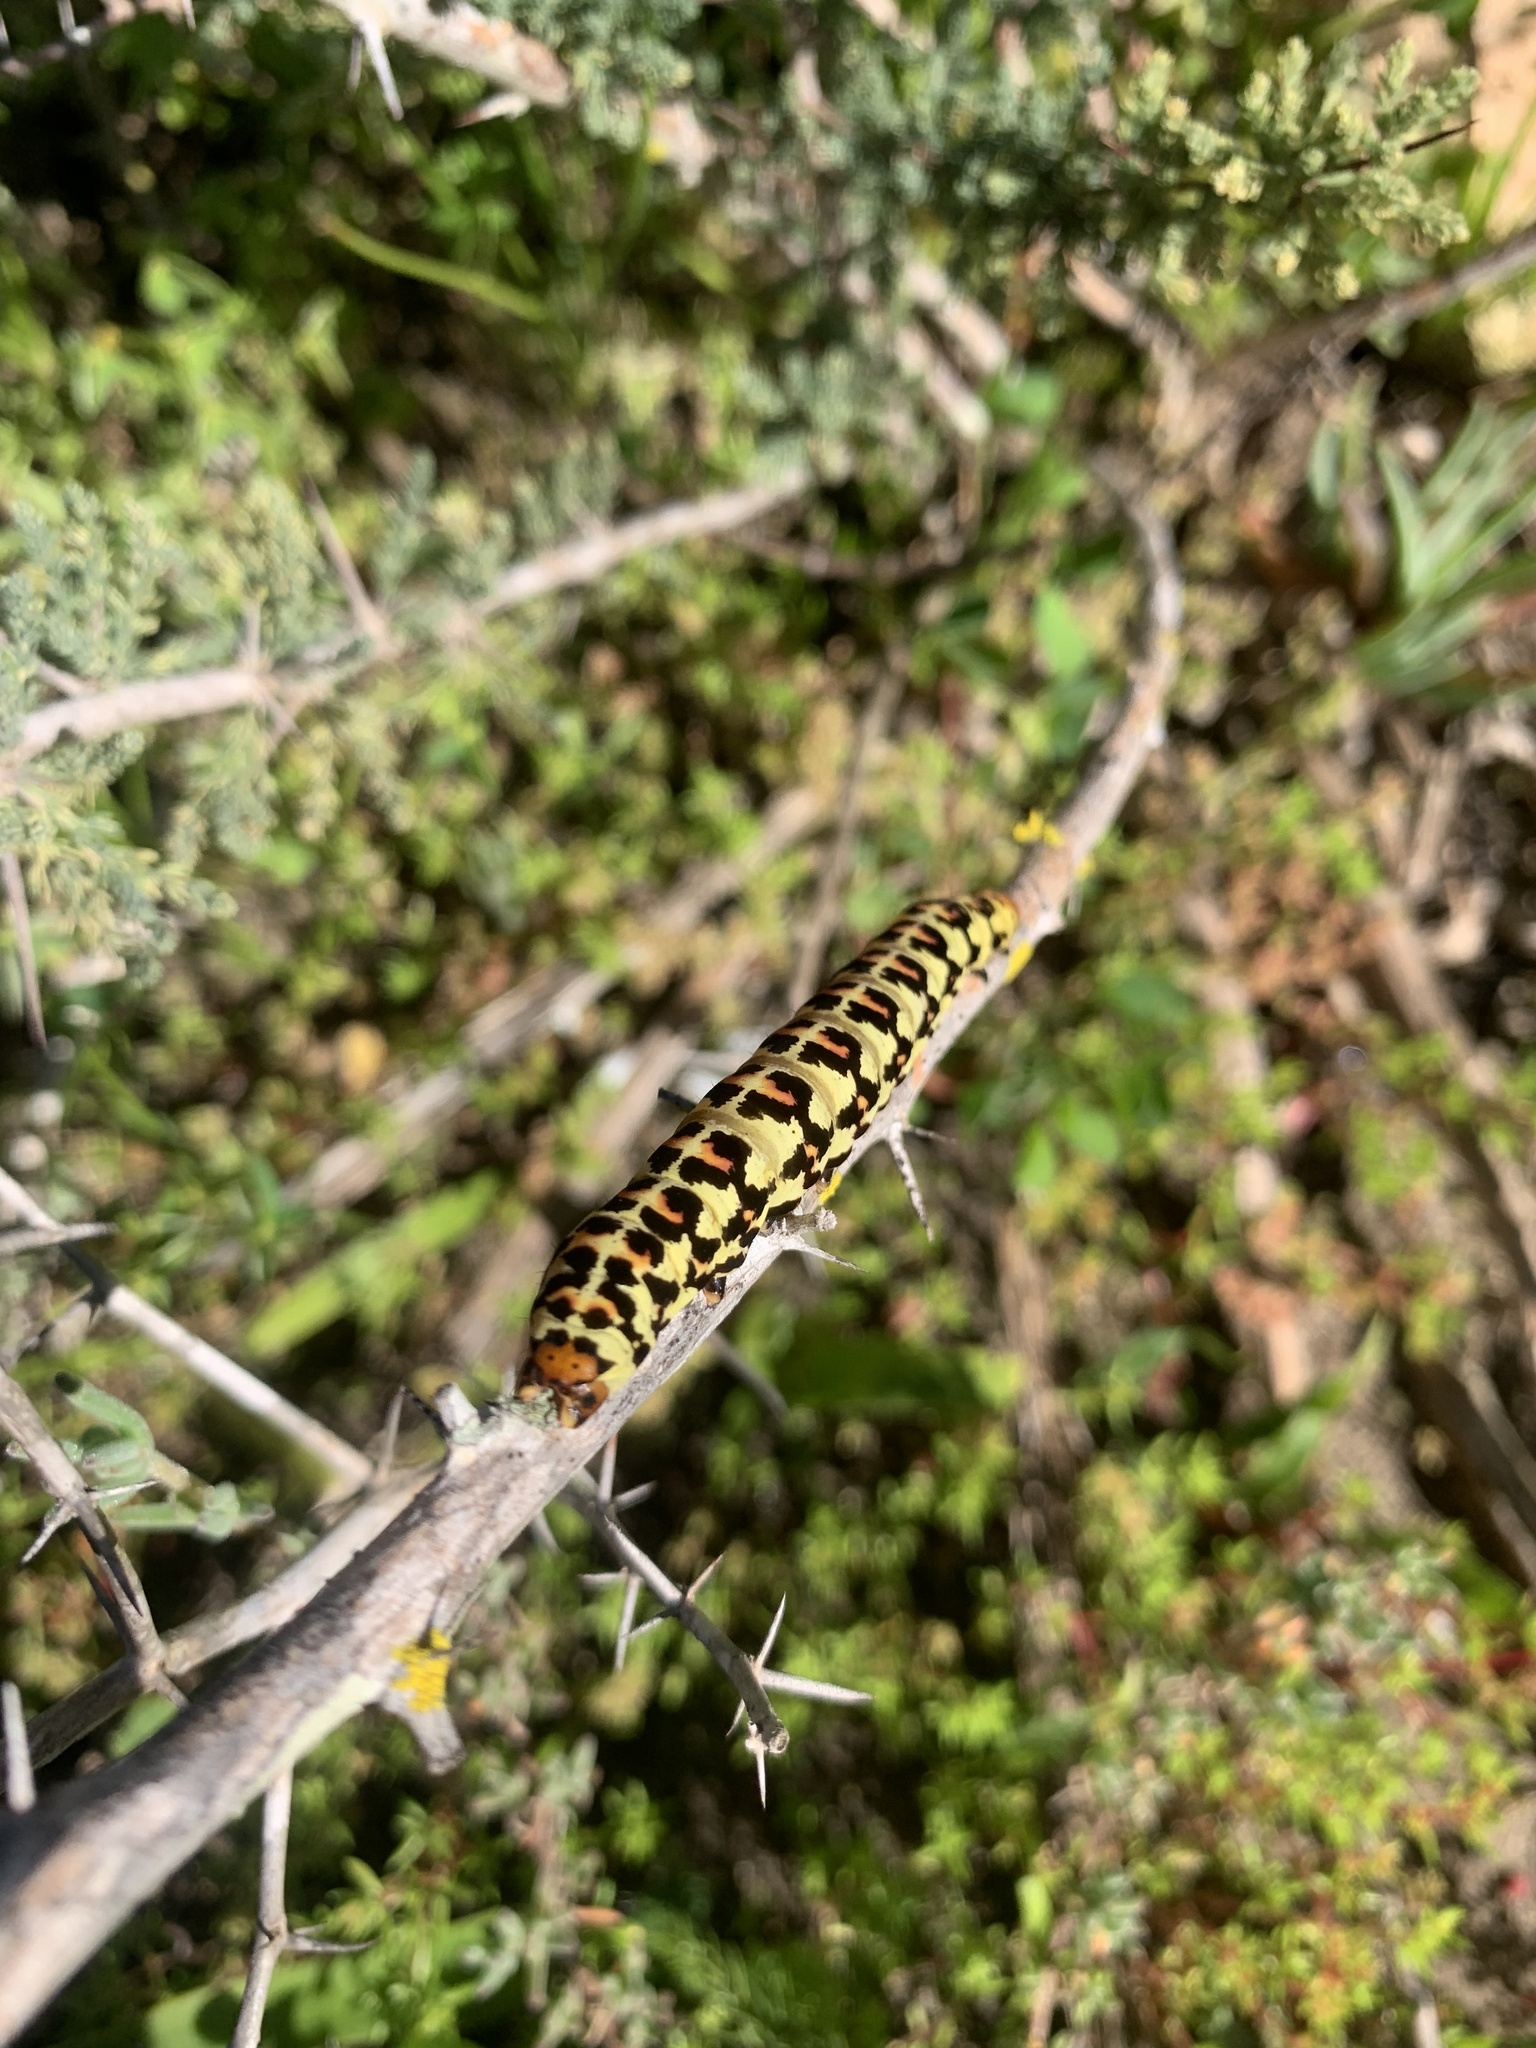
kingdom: Animalia
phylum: Arthropoda
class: Insecta
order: Lepidoptera
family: Noctuidae
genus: Diaphone
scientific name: Diaphone eumela
